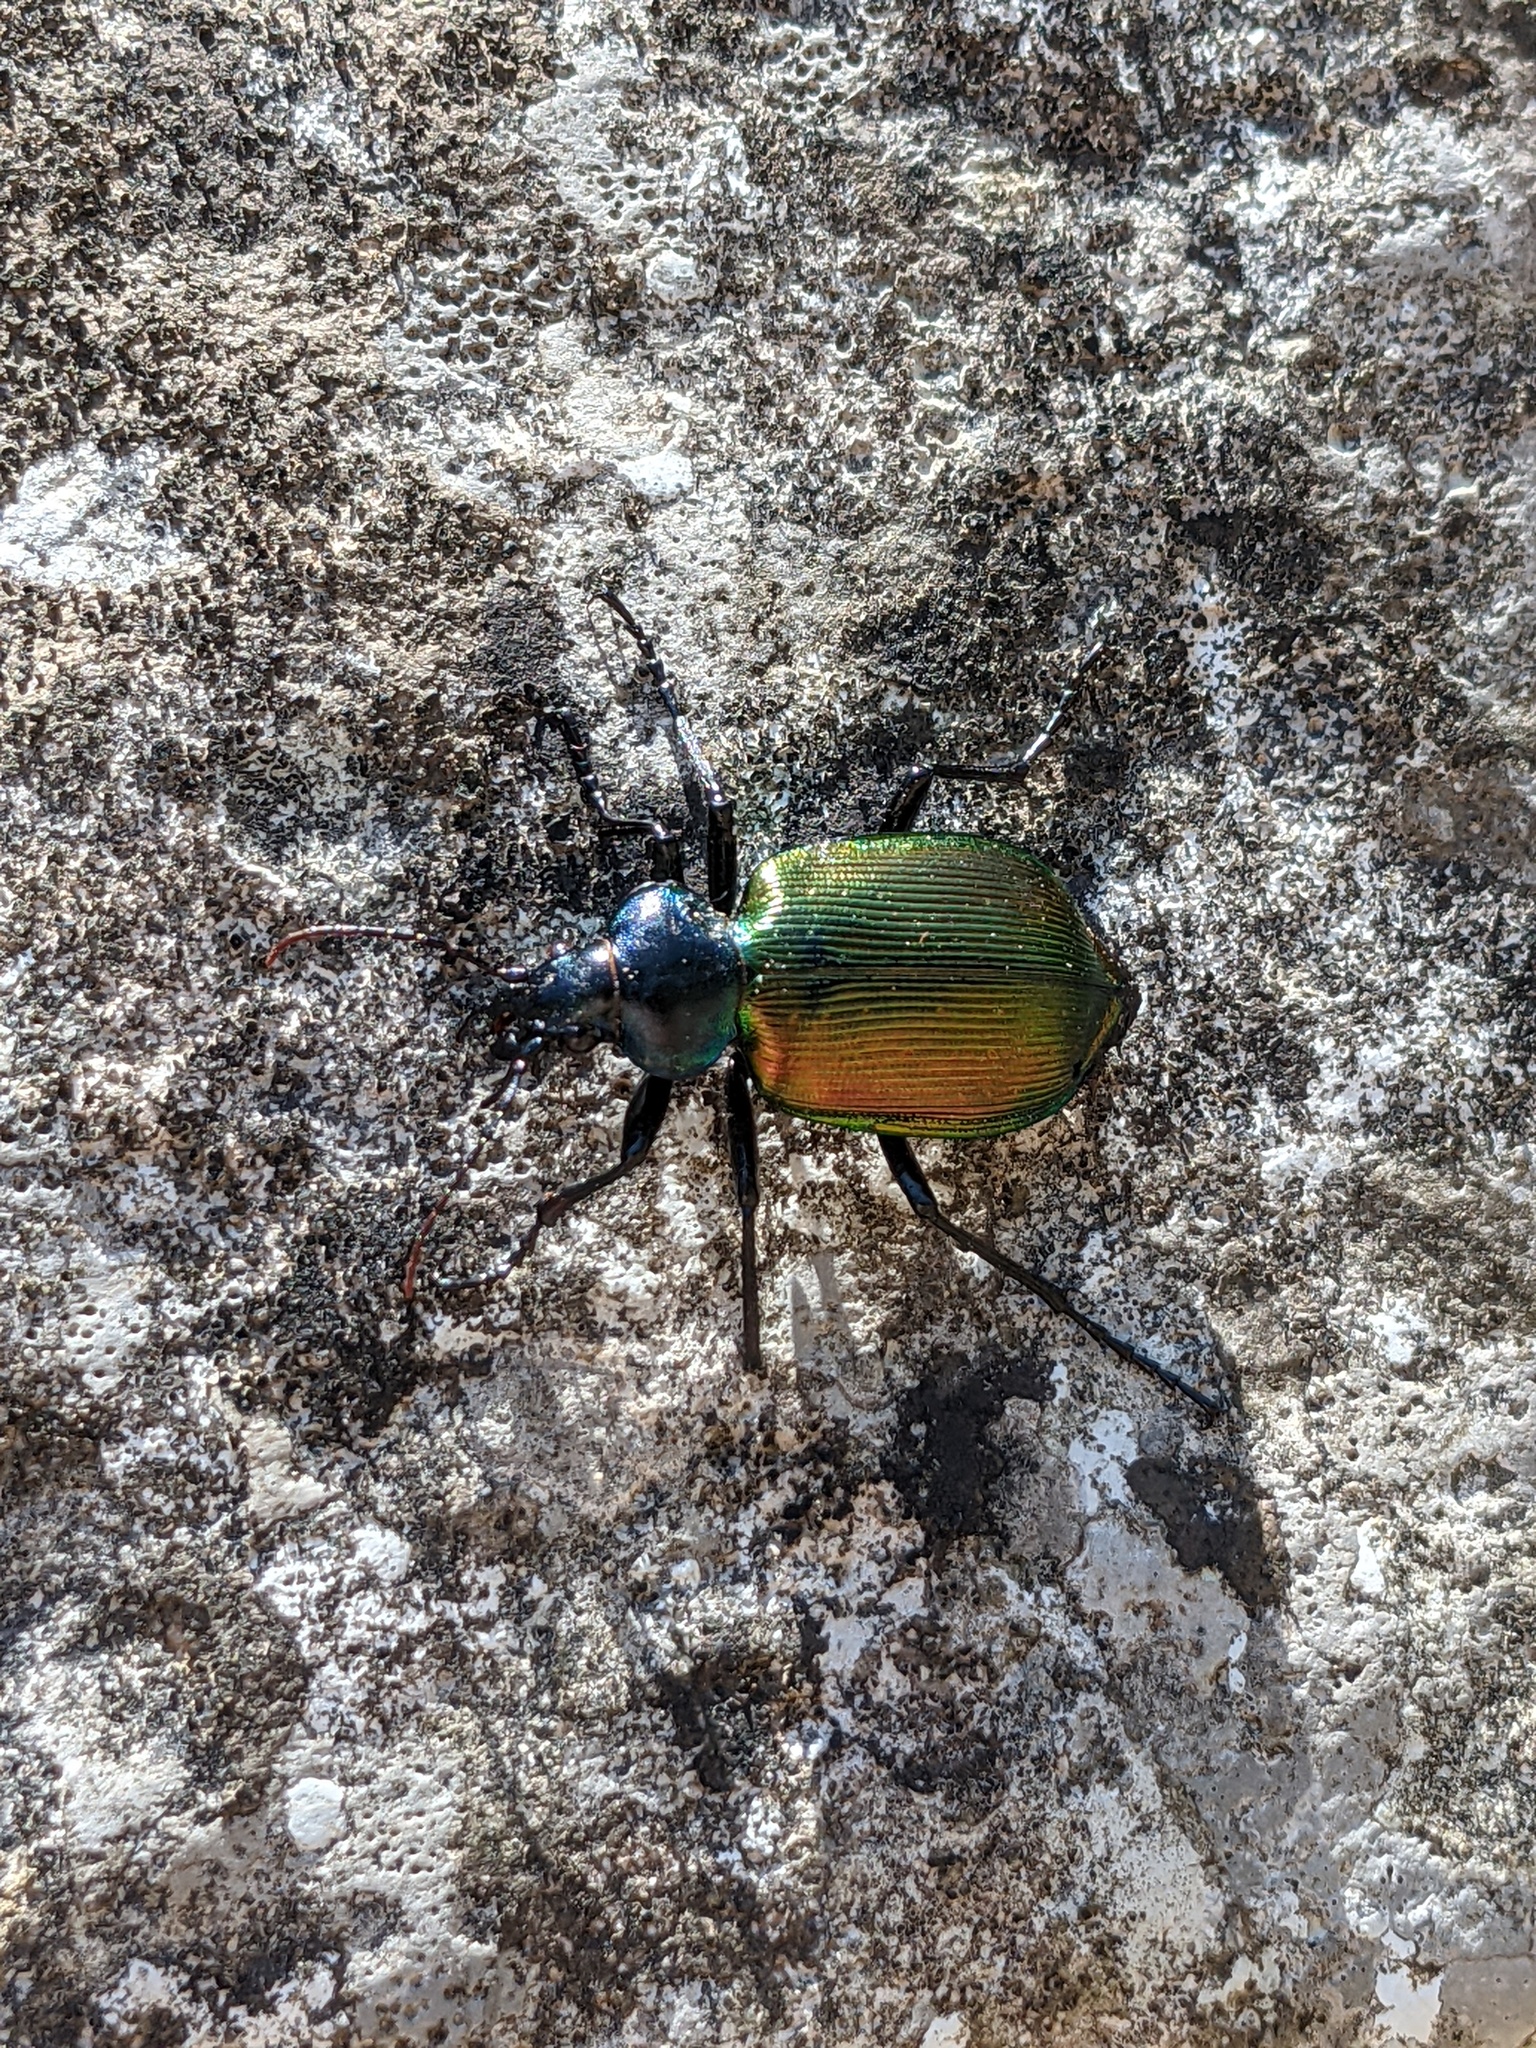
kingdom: Animalia
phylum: Arthropoda
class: Insecta
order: Coleoptera
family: Carabidae
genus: Calosoma
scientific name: Calosoma sycophanta
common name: Forest caterpillar hunter
